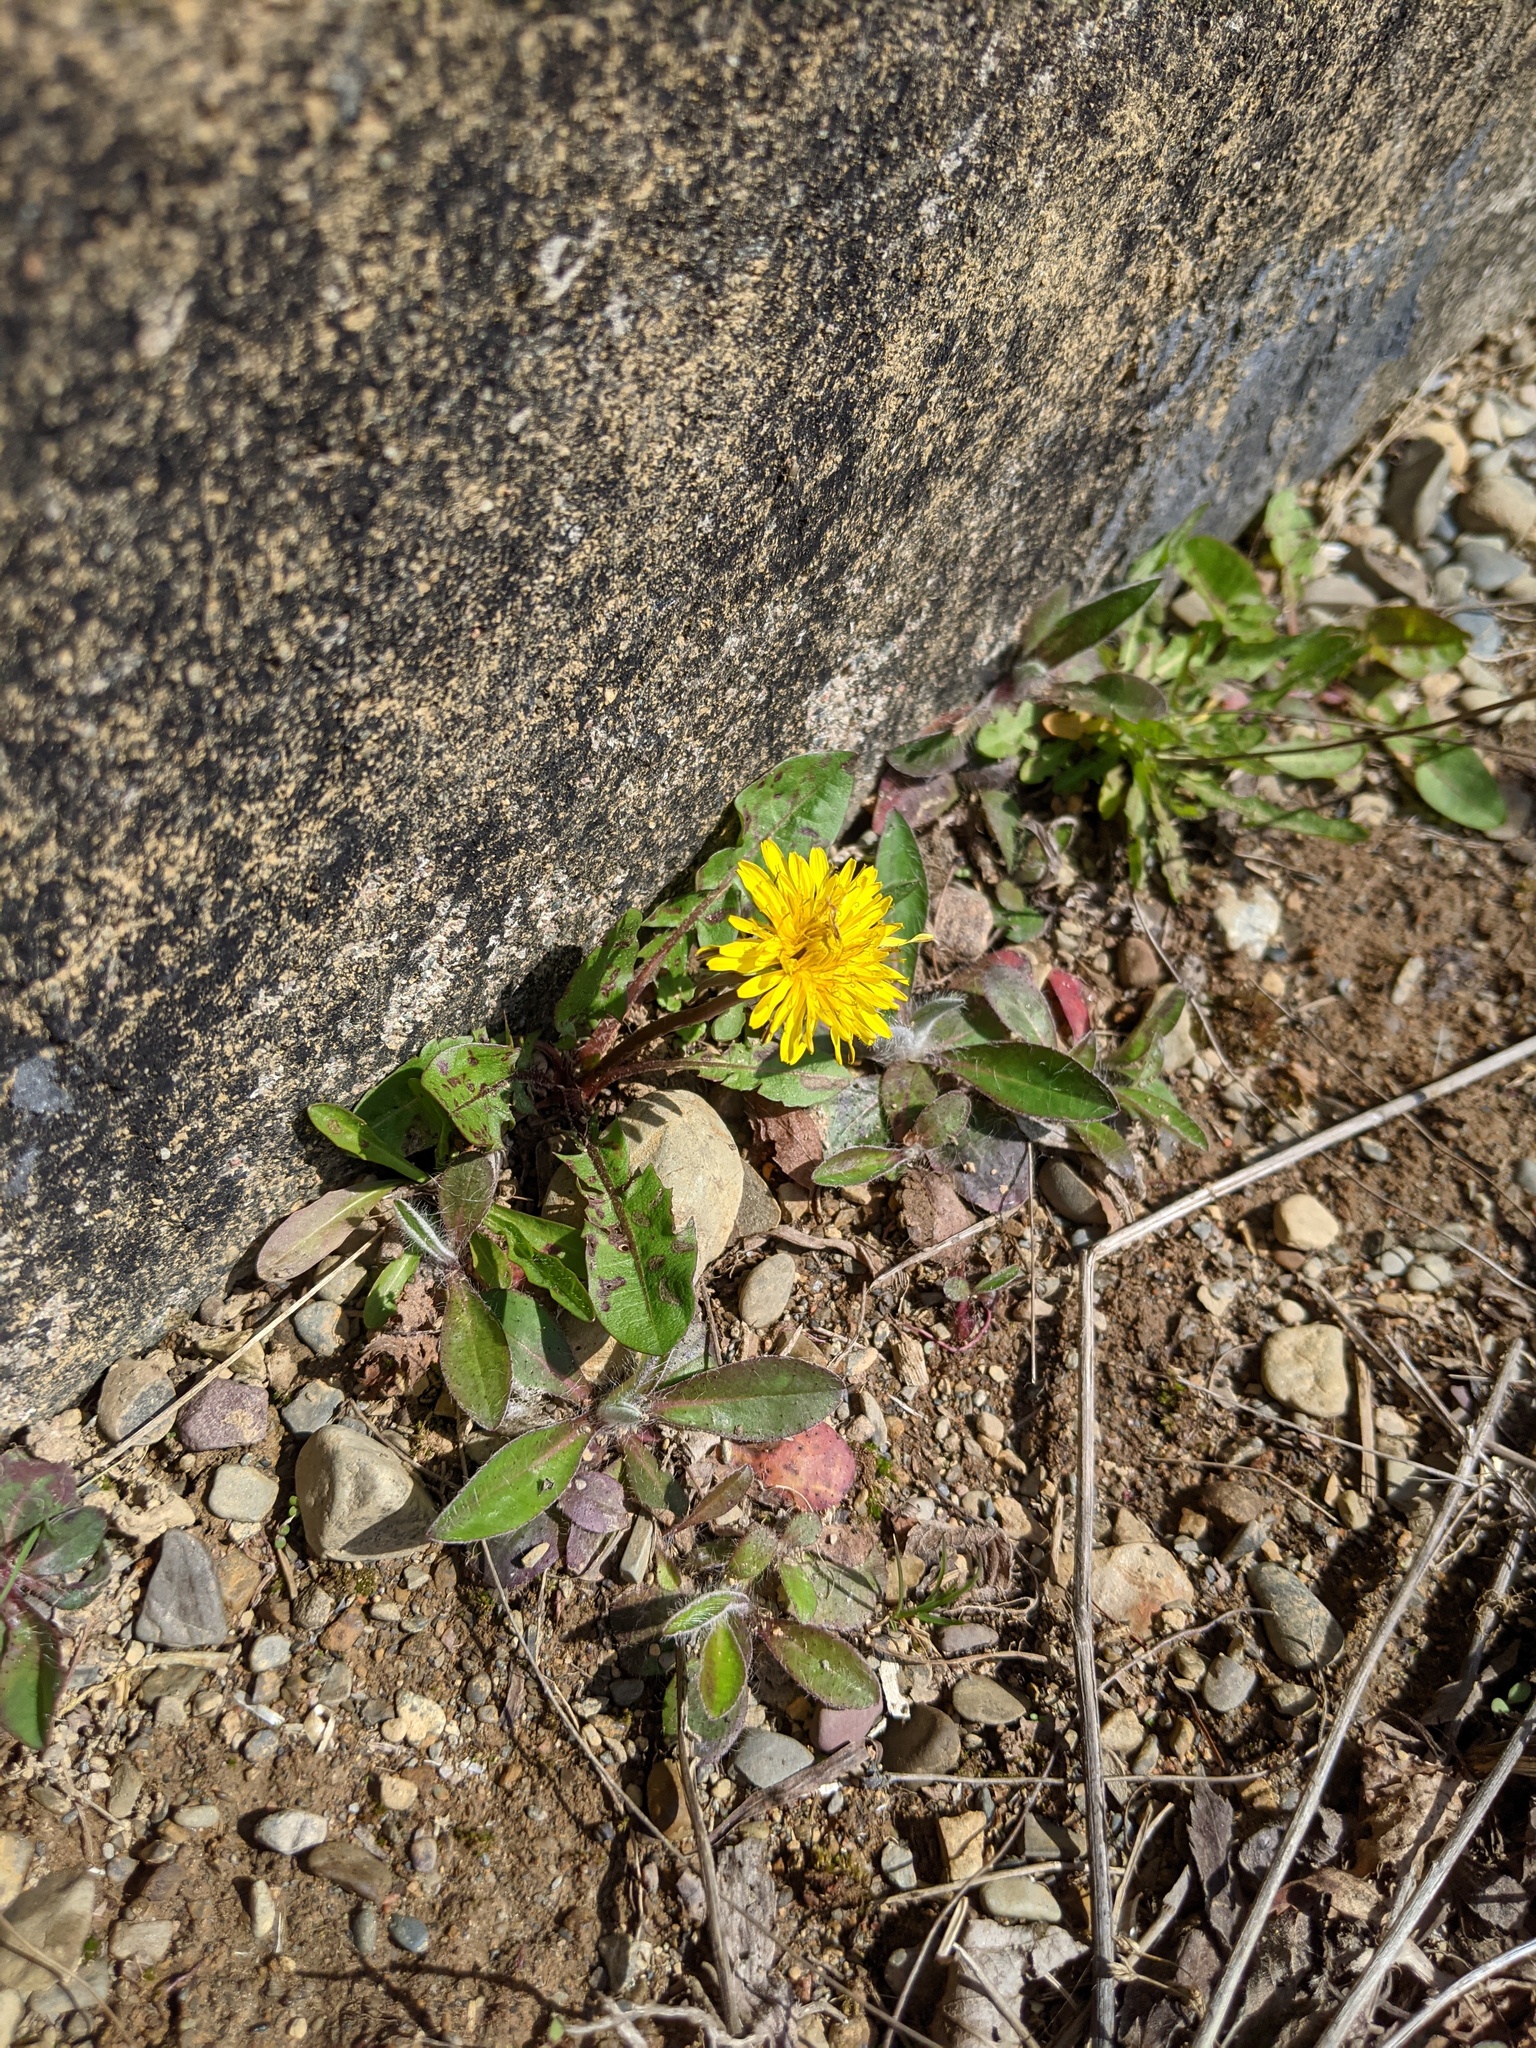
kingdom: Plantae
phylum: Tracheophyta
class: Magnoliopsida
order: Asterales
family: Asteraceae
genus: Taraxacum
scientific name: Taraxacum officinale
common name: Common dandelion
